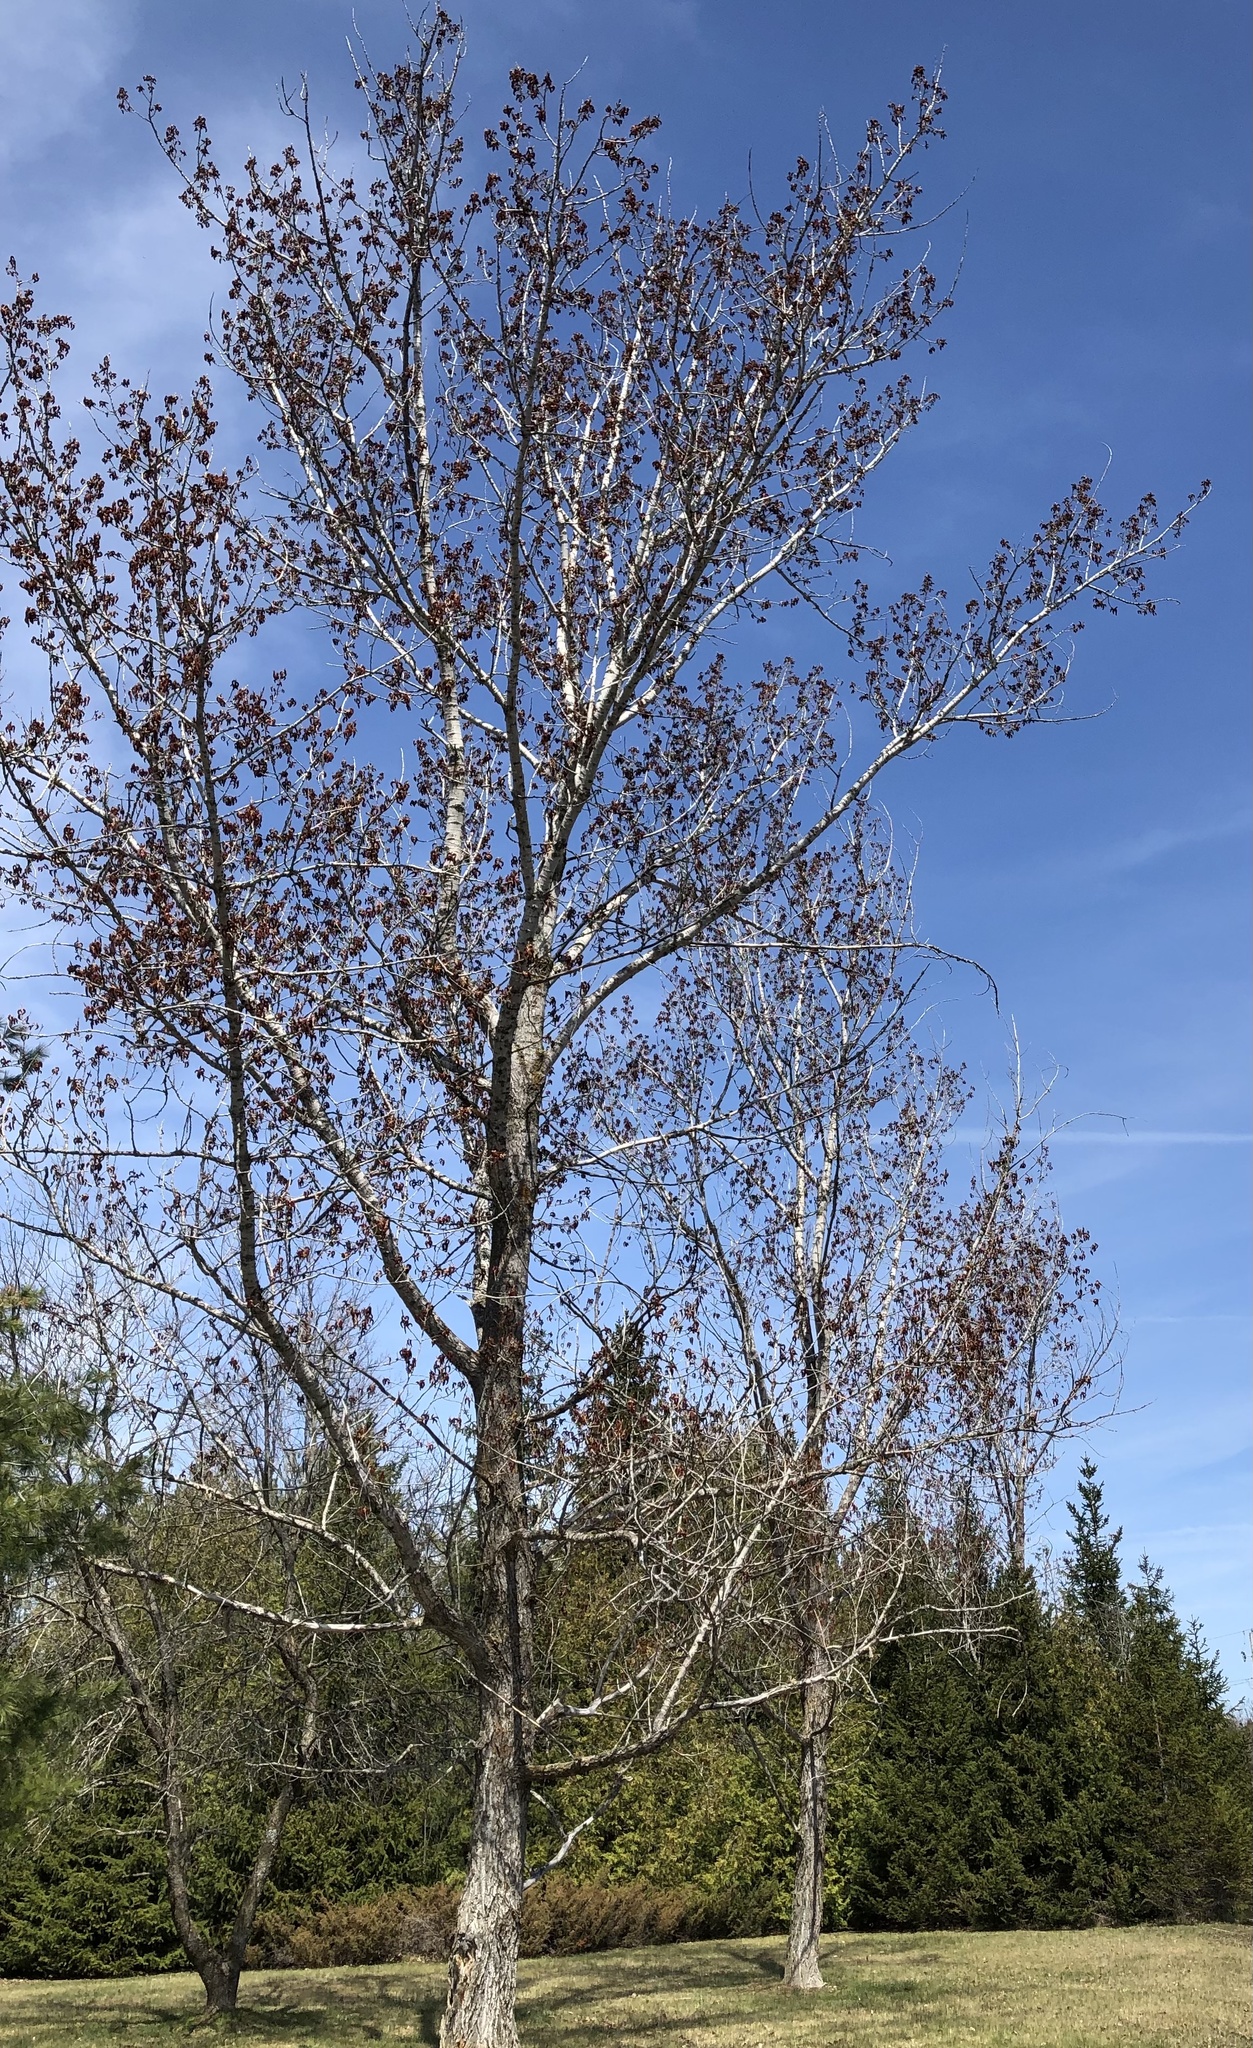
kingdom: Plantae
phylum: Tracheophyta
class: Magnoliopsida
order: Malpighiales
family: Salicaceae
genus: Populus
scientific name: Populus deltoides
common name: Eastern cottonwood
